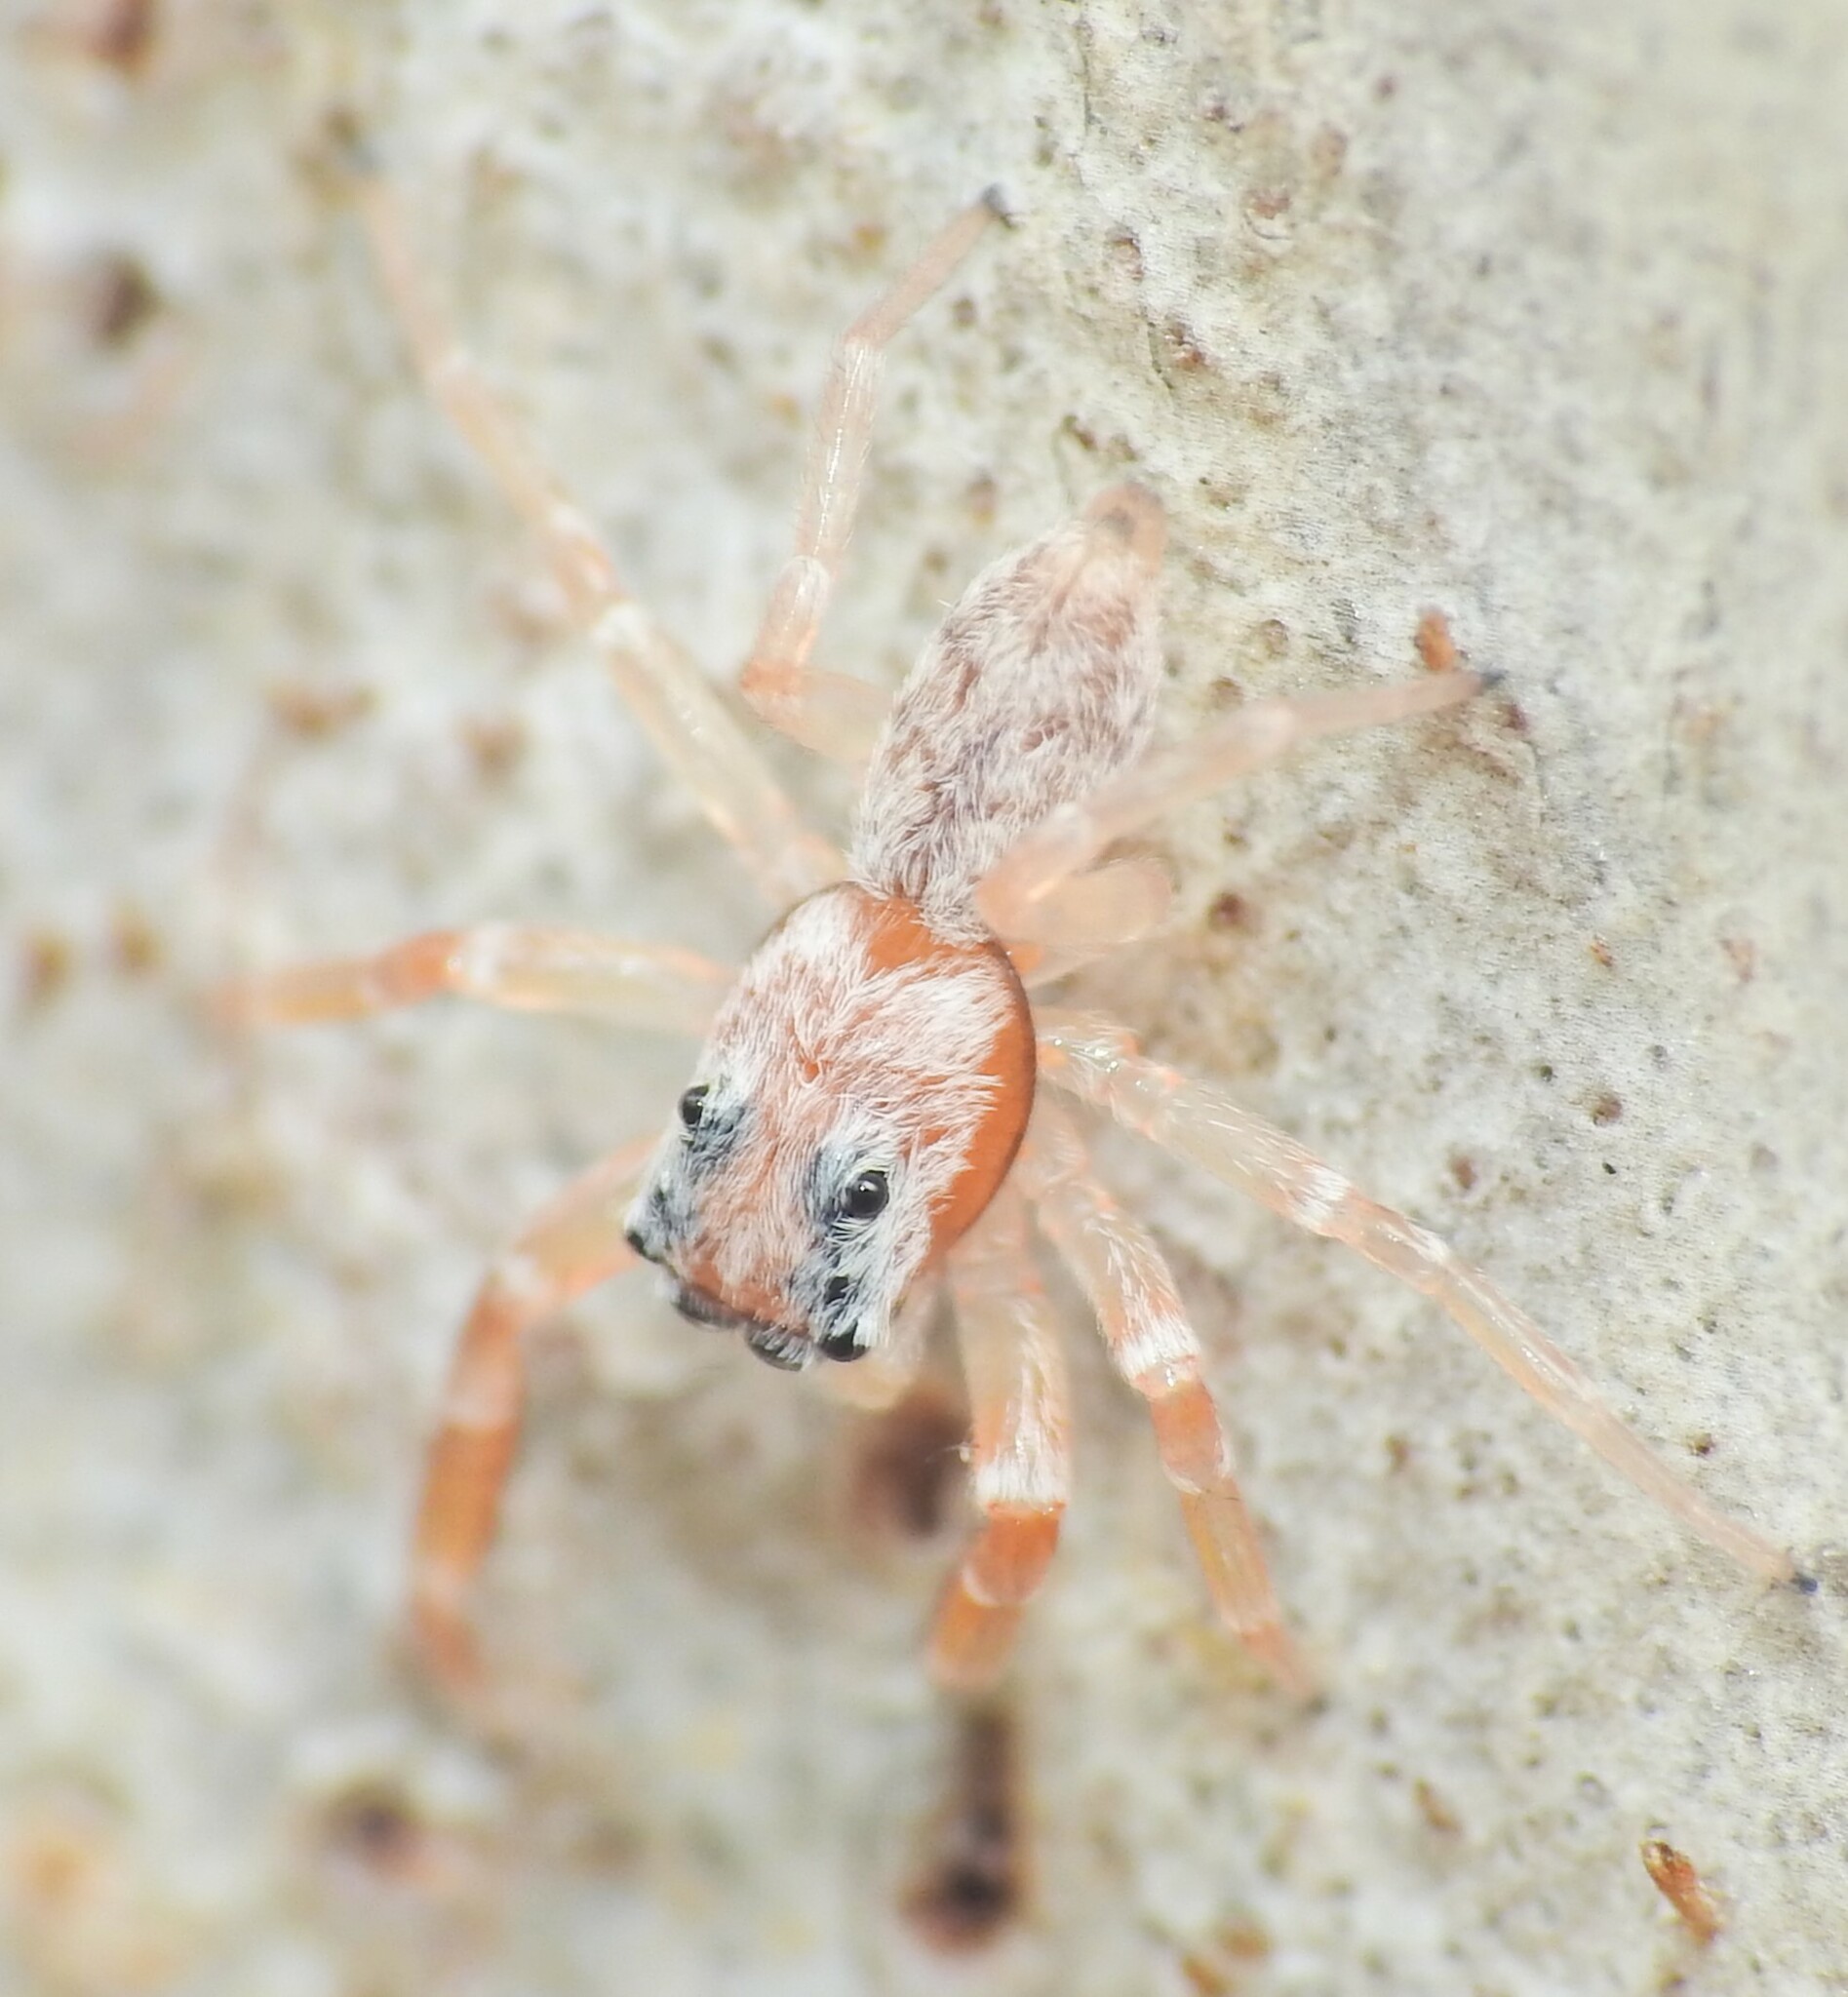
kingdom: Animalia
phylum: Arthropoda
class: Arachnida
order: Araneae
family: Salticidae
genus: Arasia
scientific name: Arasia mollicoma
